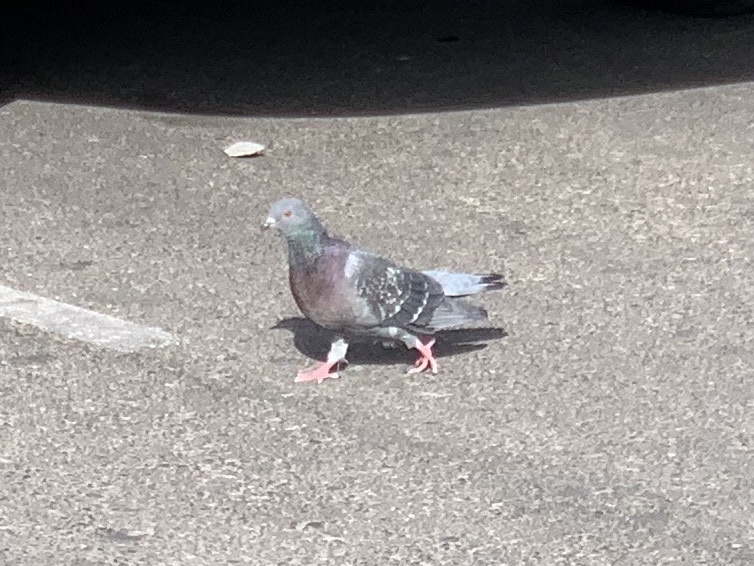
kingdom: Animalia
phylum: Chordata
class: Aves
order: Columbiformes
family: Columbidae
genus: Columba
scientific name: Columba livia
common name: Rock pigeon
